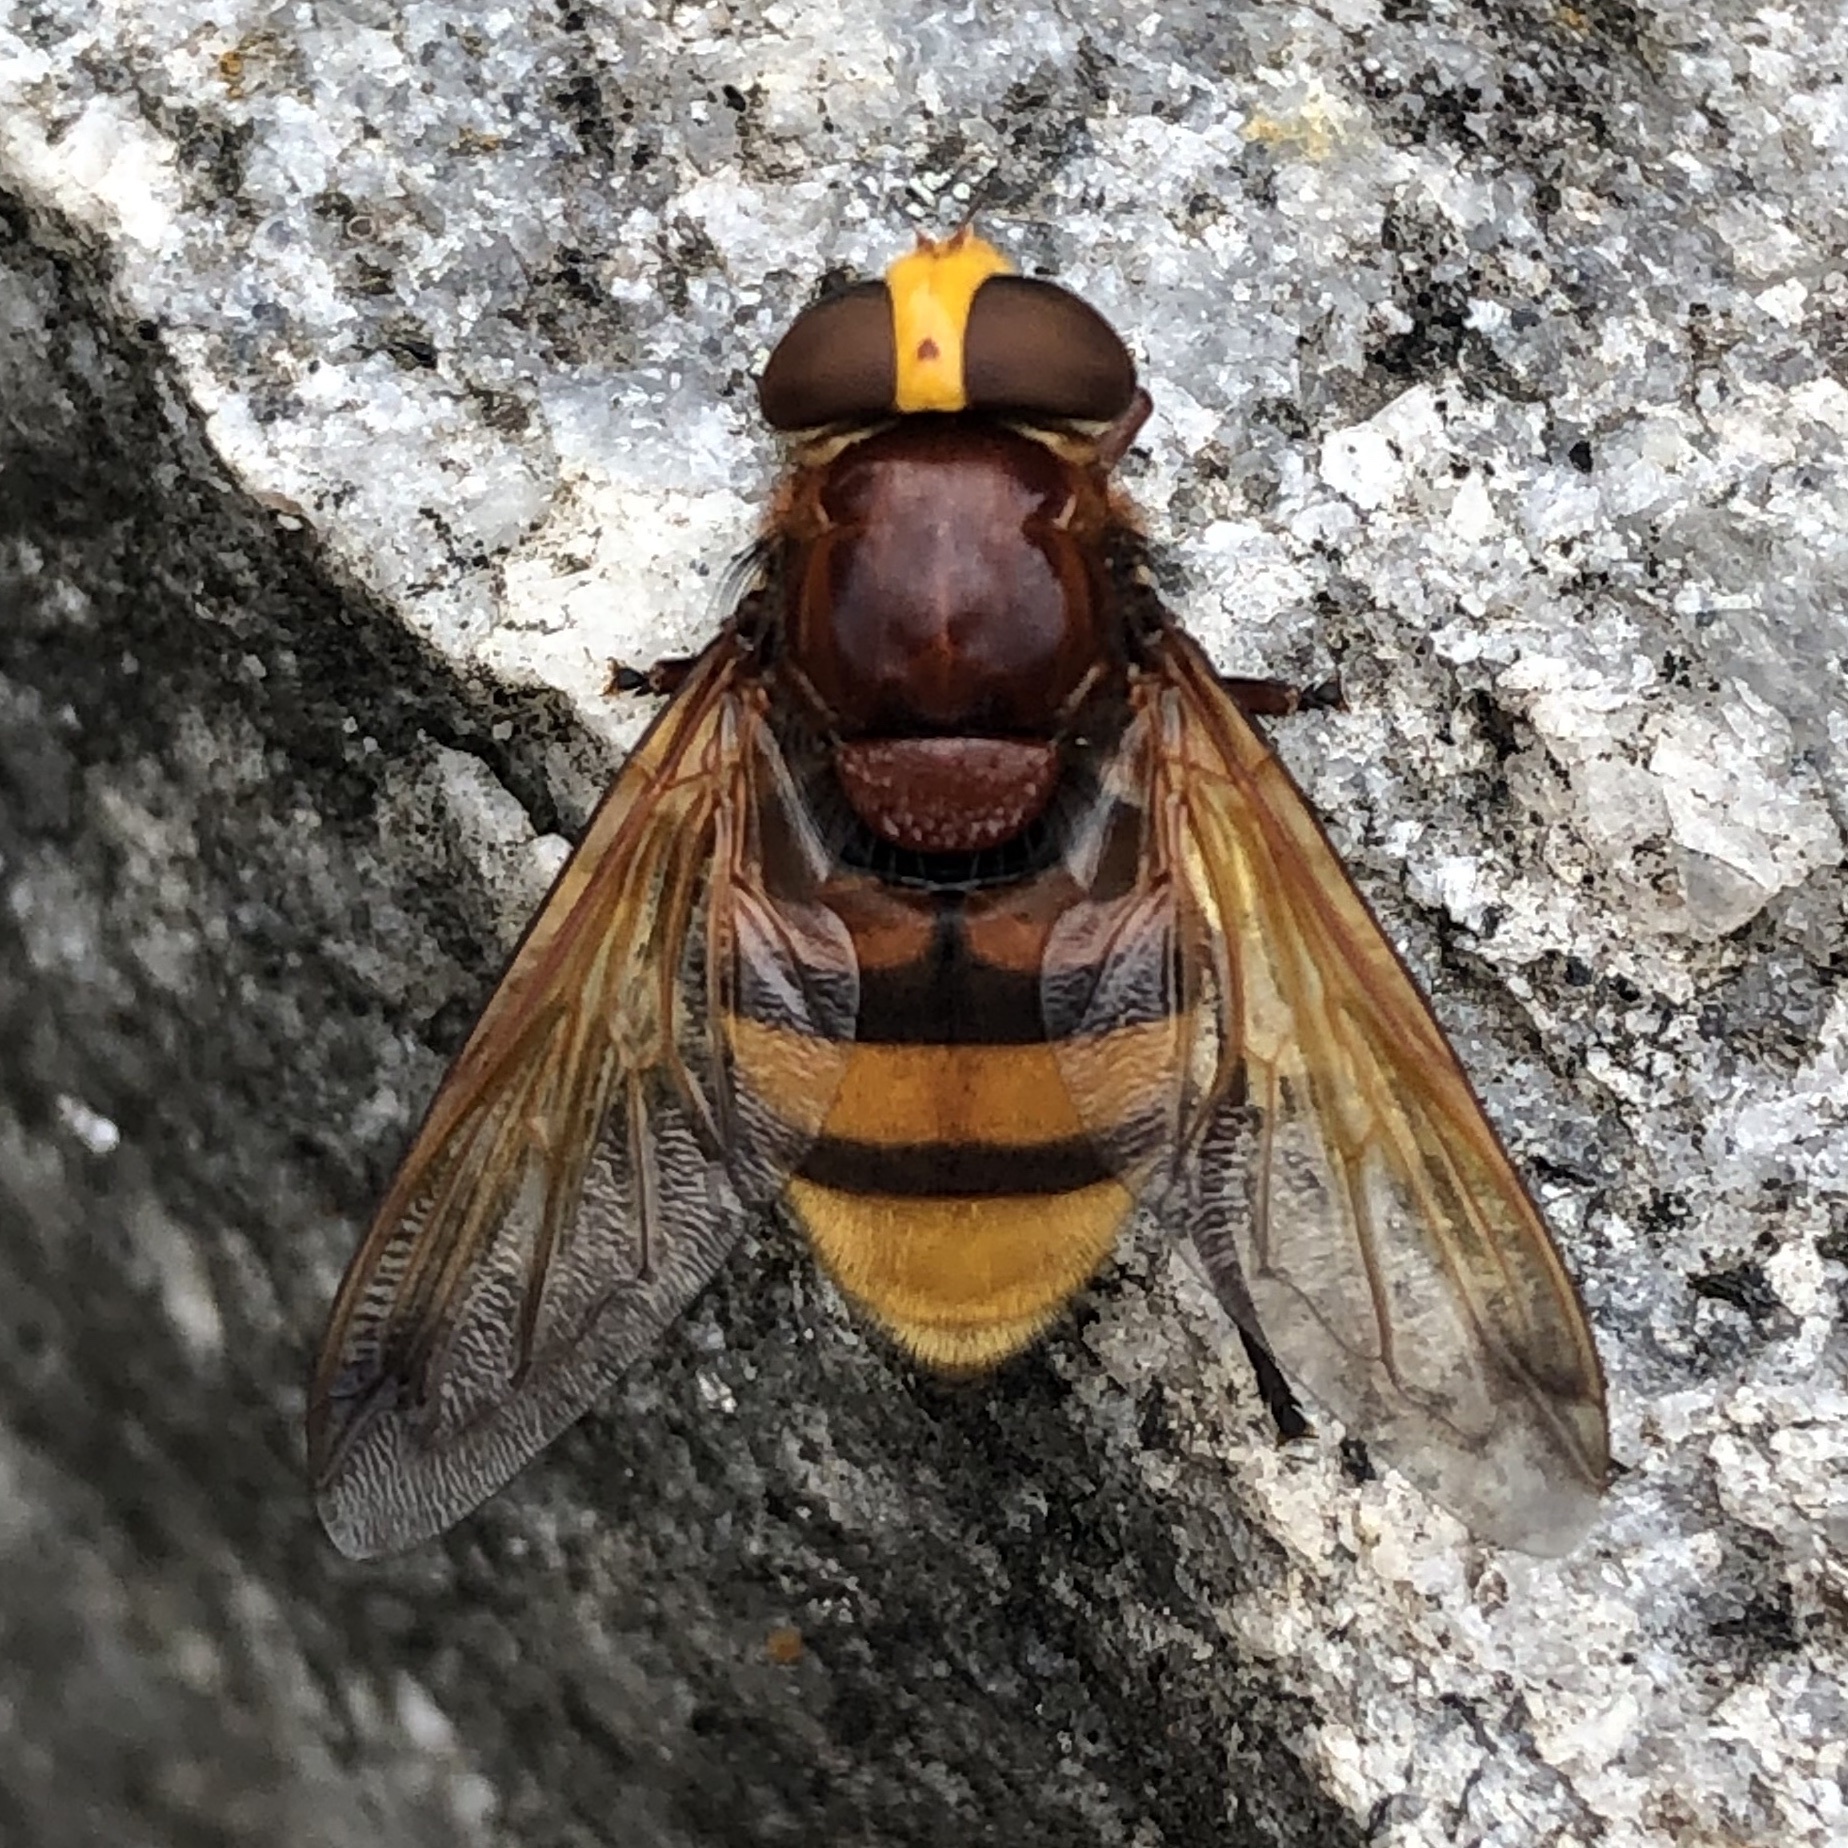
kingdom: Animalia
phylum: Arthropoda
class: Insecta
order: Diptera
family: Syrphidae
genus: Volucella
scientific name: Volucella zonaria
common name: Hornet hoverfly
